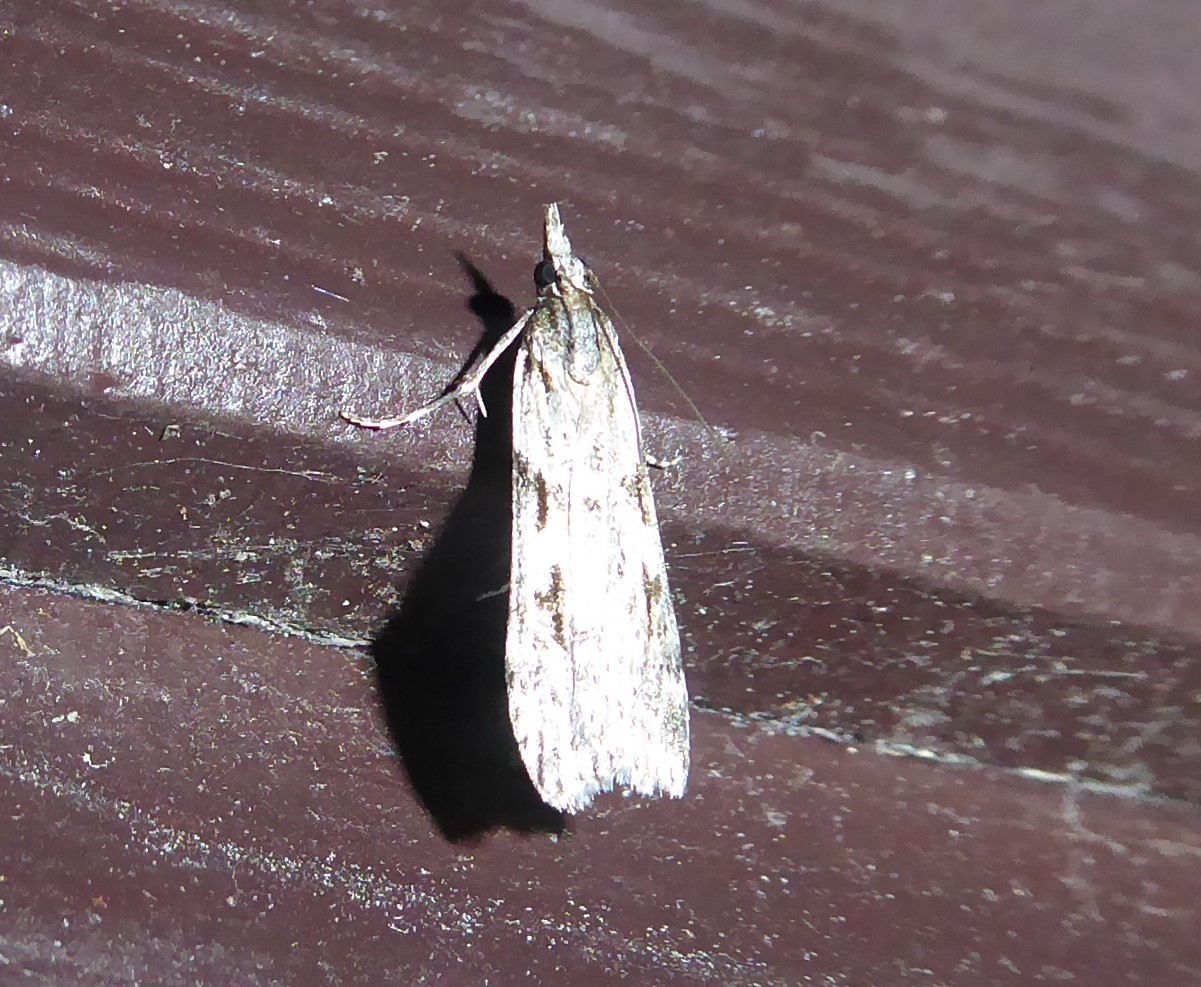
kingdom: Animalia
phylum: Arthropoda
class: Insecta
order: Lepidoptera
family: Crambidae
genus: Scoparia
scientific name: Scoparia halopis
